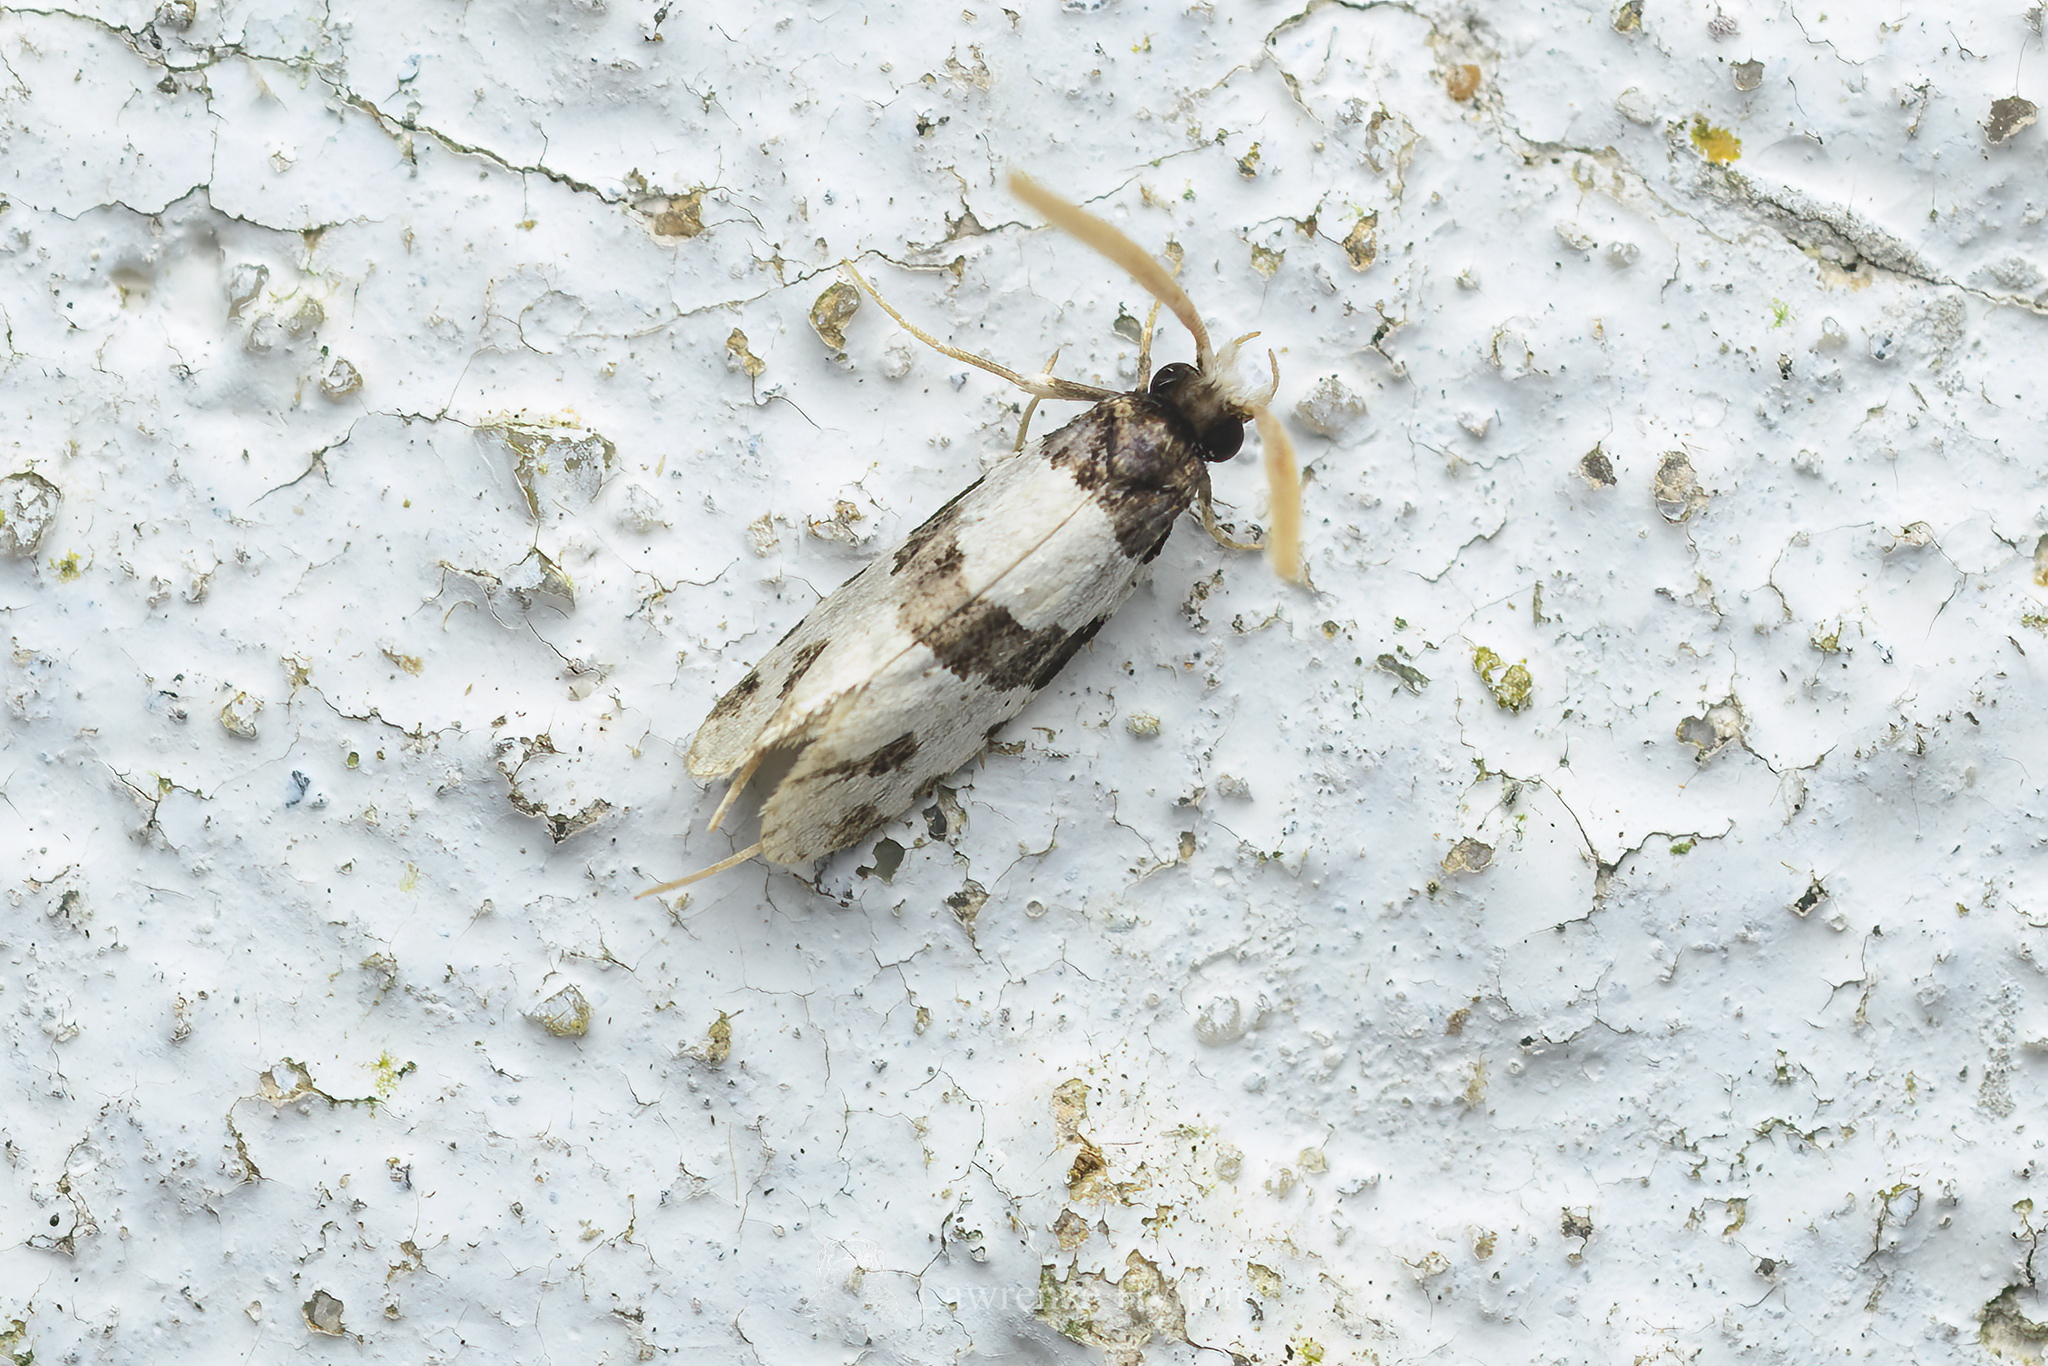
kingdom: Animalia
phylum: Arthropoda
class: Insecta
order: Lepidoptera
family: Tineidae
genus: Thisizima
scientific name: Thisizima fasciaria
